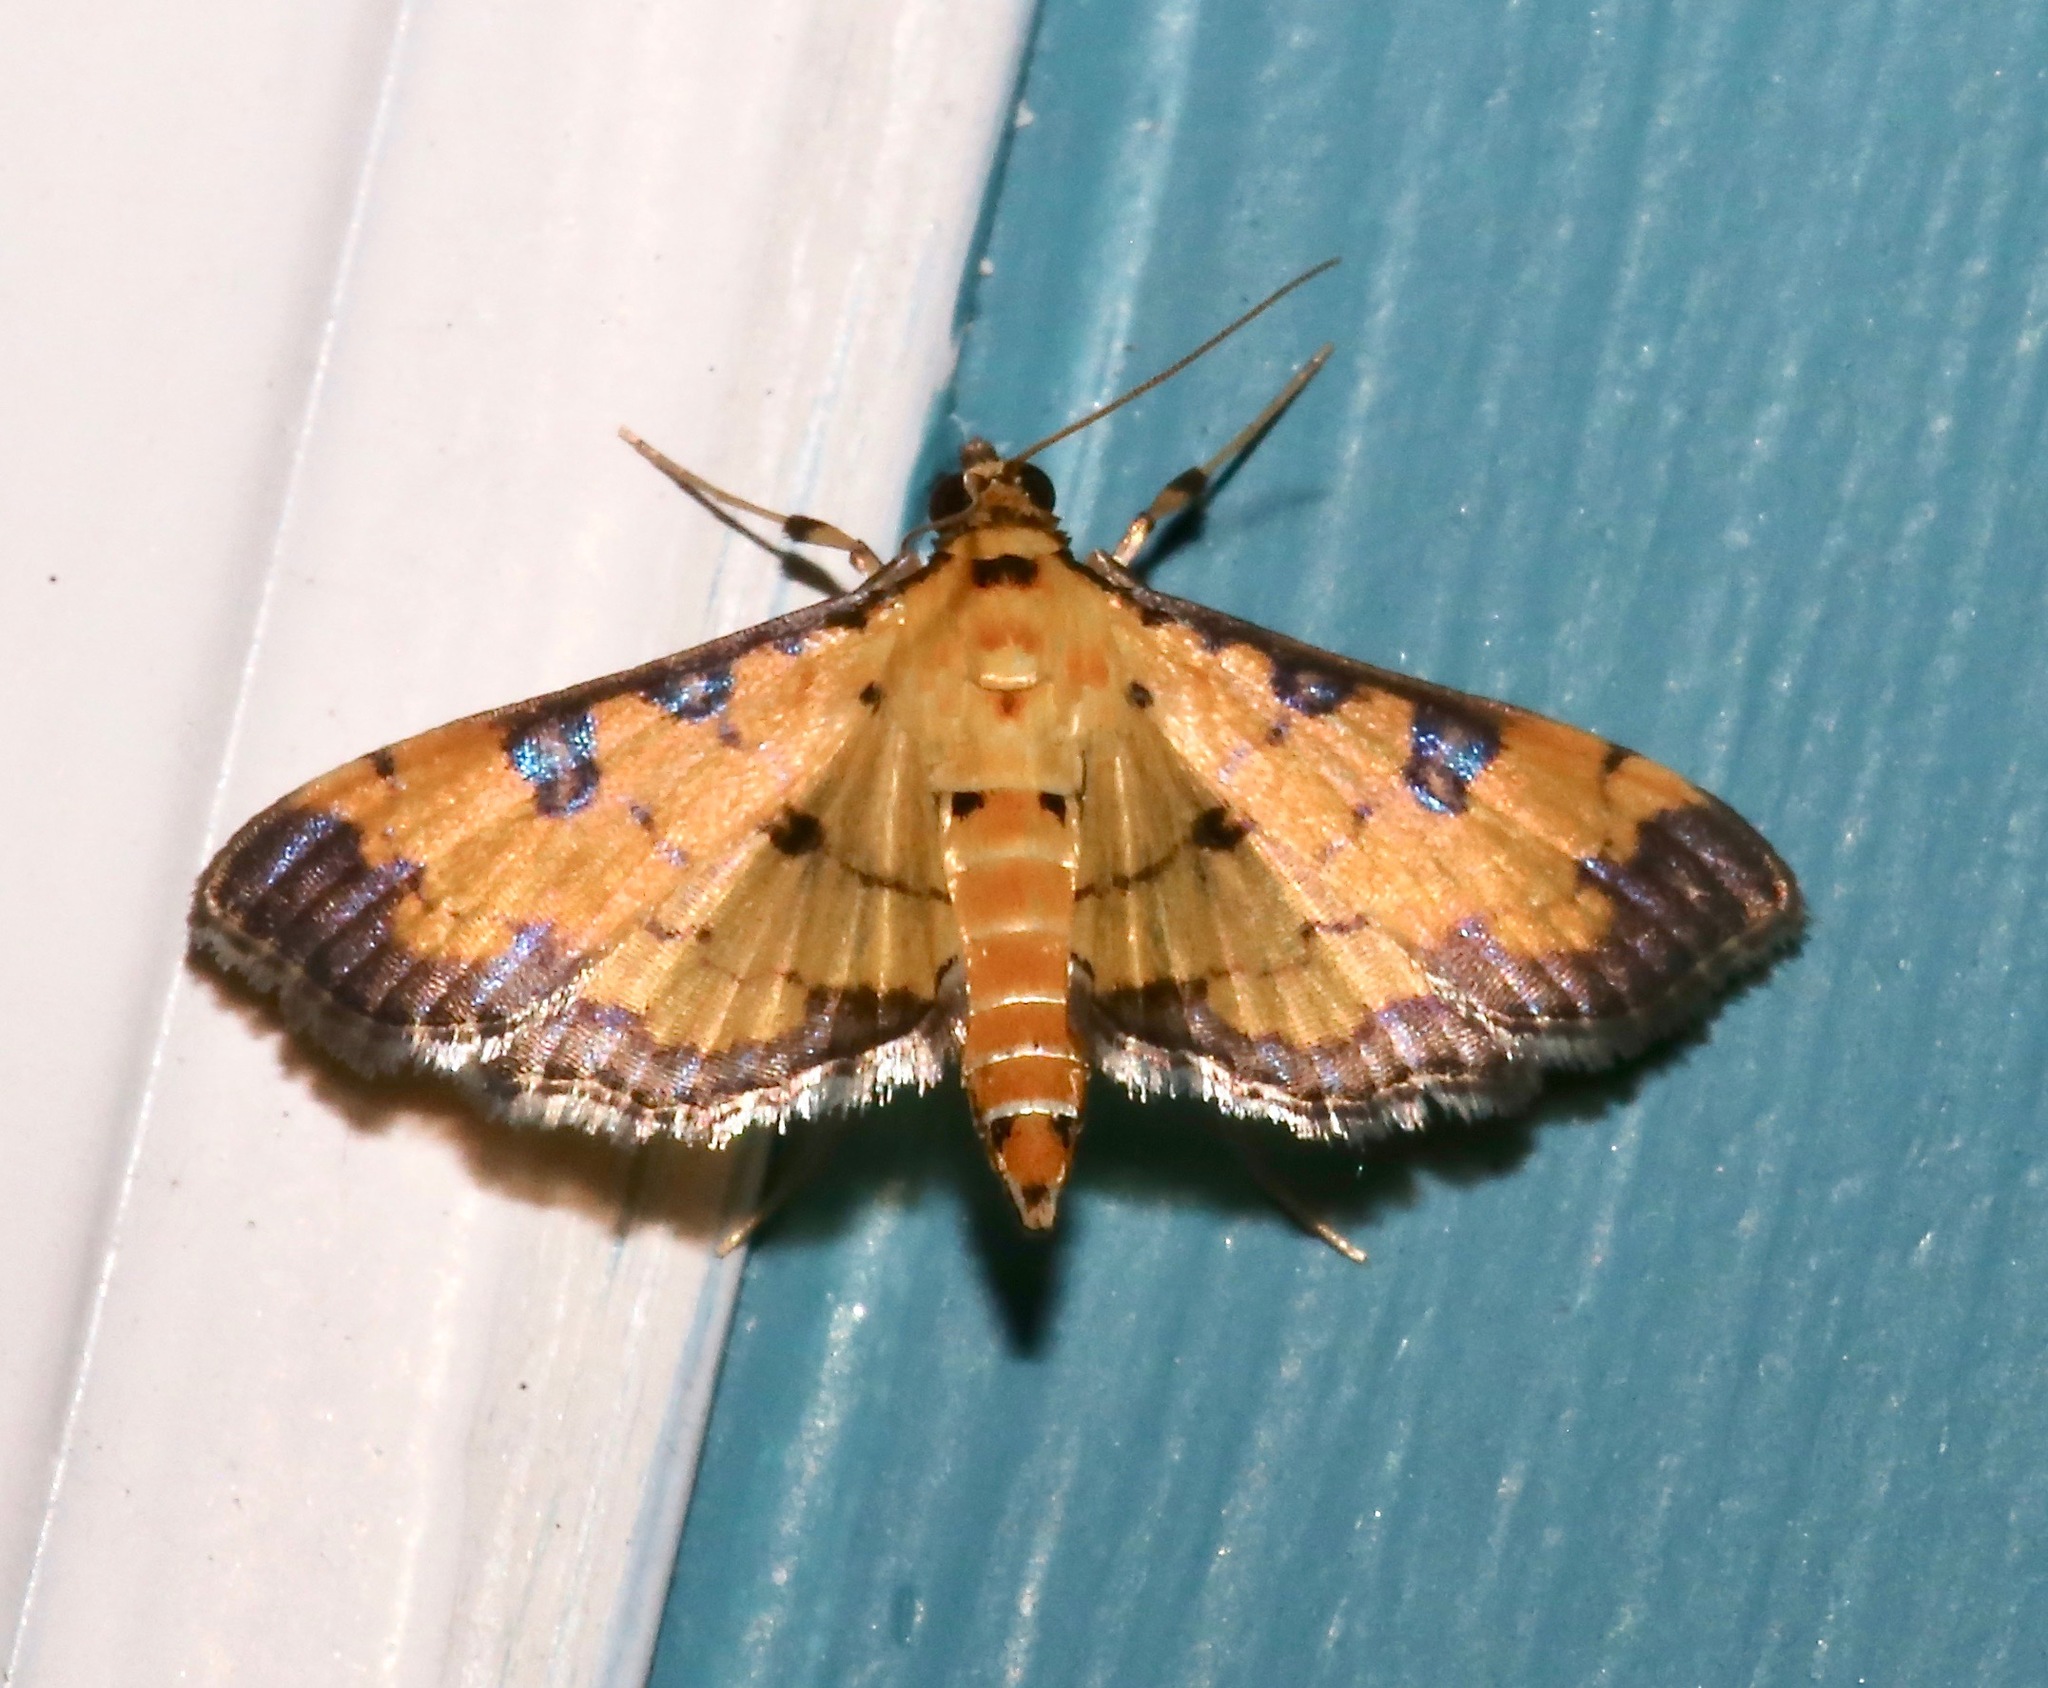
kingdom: Animalia
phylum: Arthropoda
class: Insecta
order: Lepidoptera
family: Crambidae
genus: Ategumia
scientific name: Ategumia ebulealis
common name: Moth
